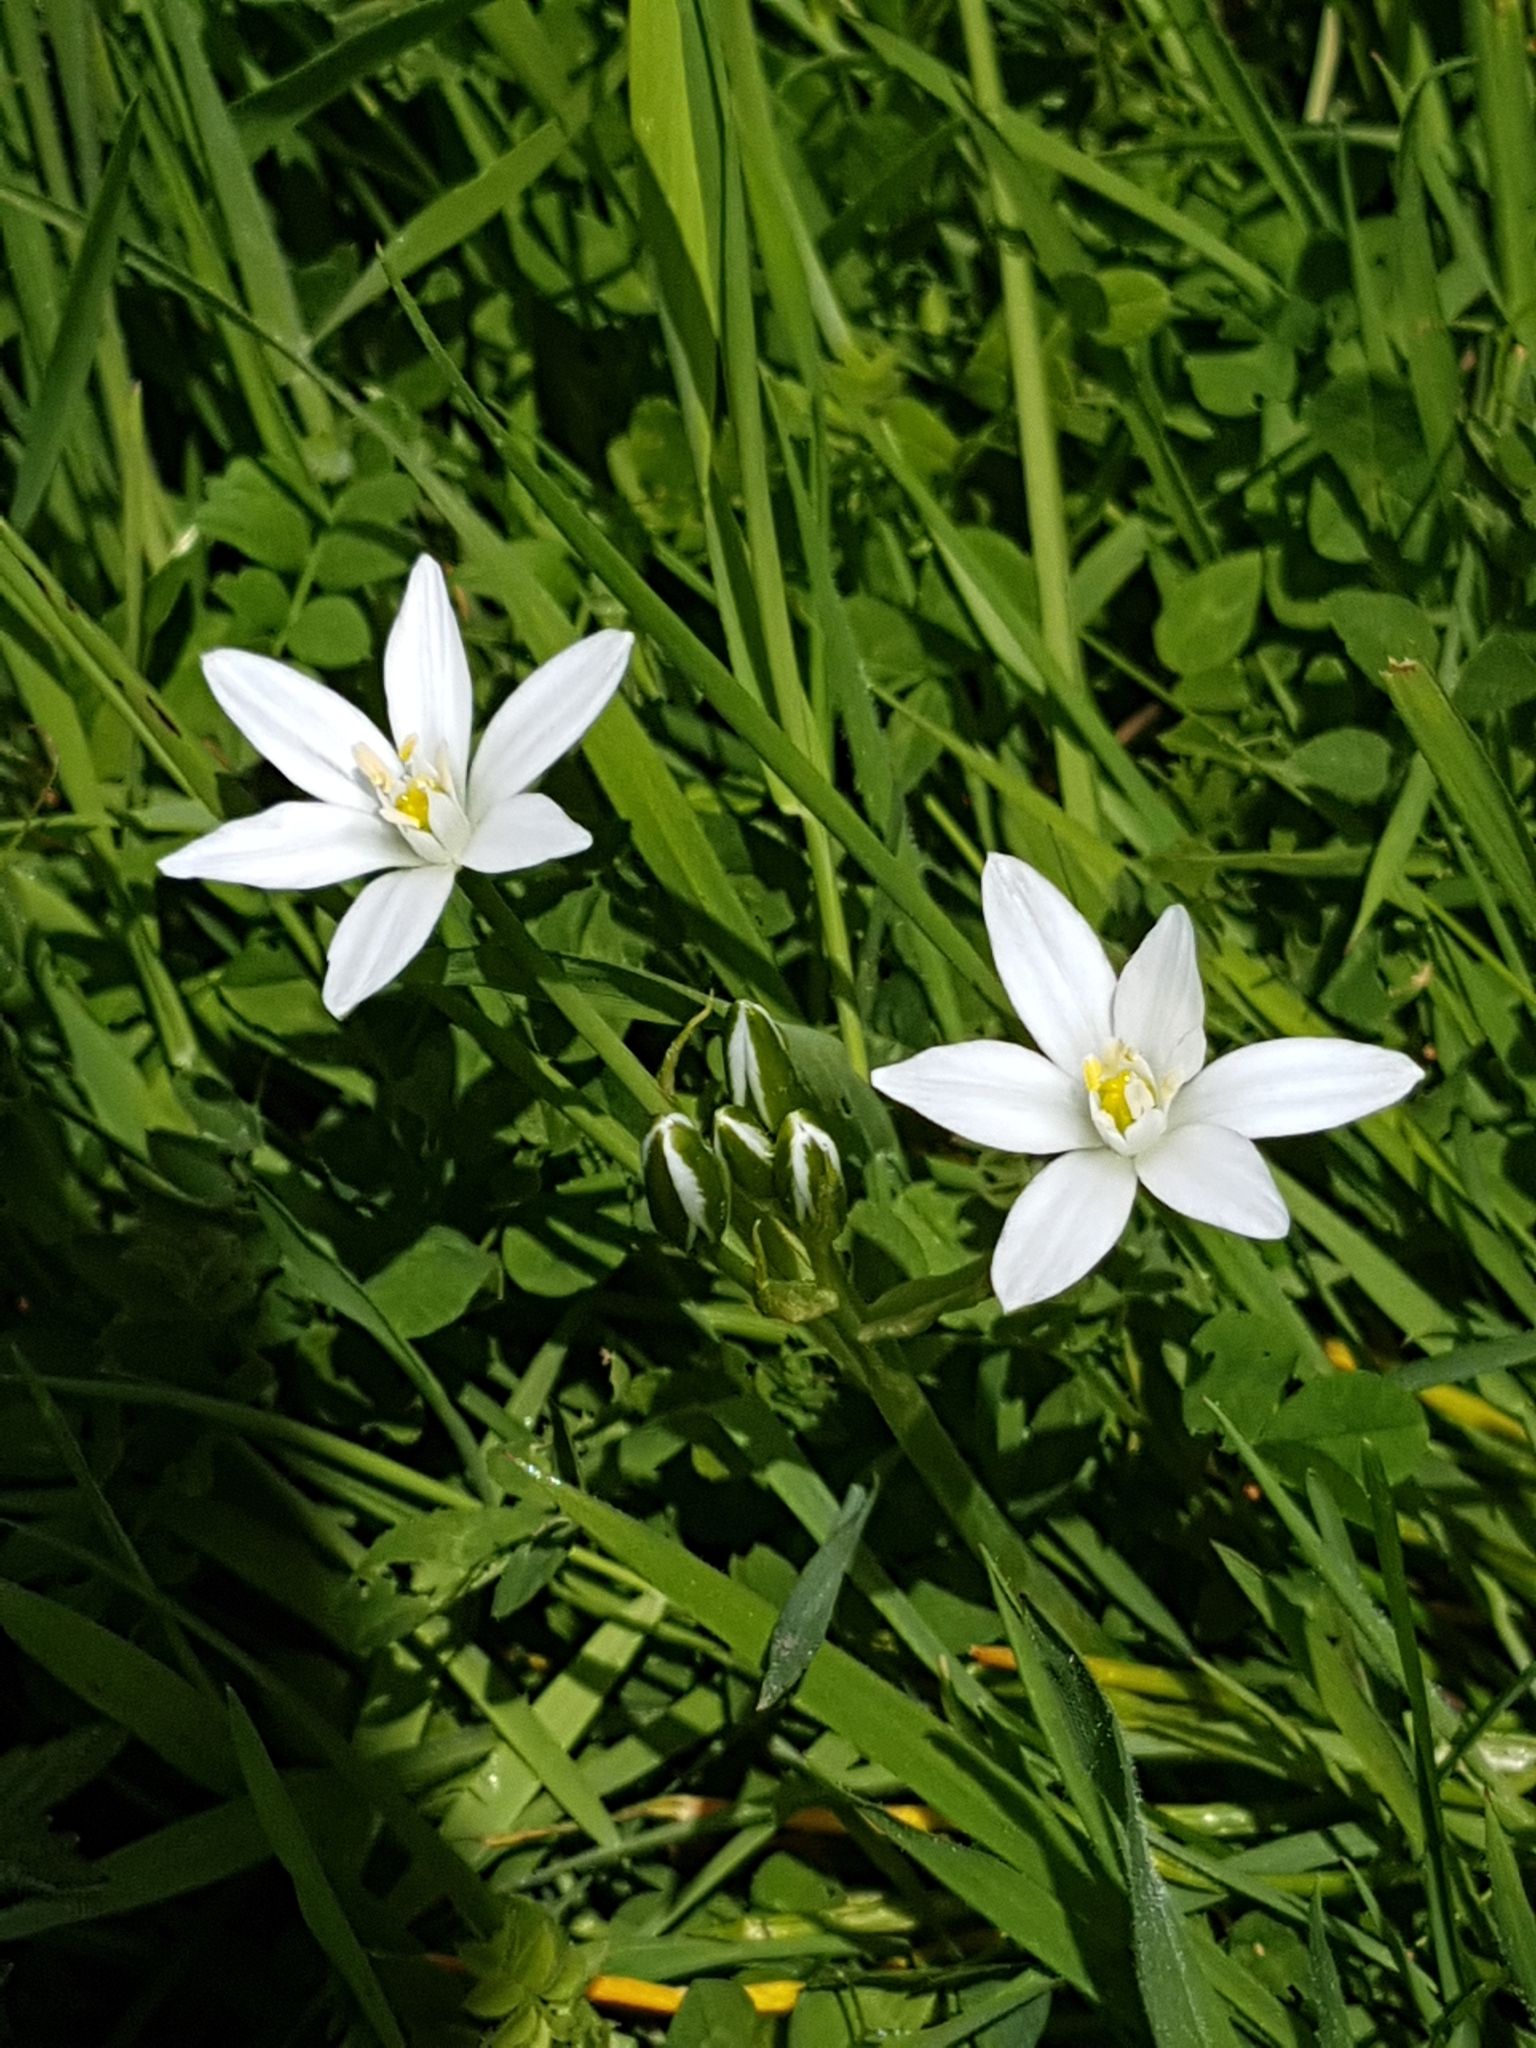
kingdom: Plantae
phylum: Tracheophyta
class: Liliopsida
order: Asparagales
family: Asparagaceae
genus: Ornithogalum
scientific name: Ornithogalum umbellatum
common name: Garden star-of-bethlehem
